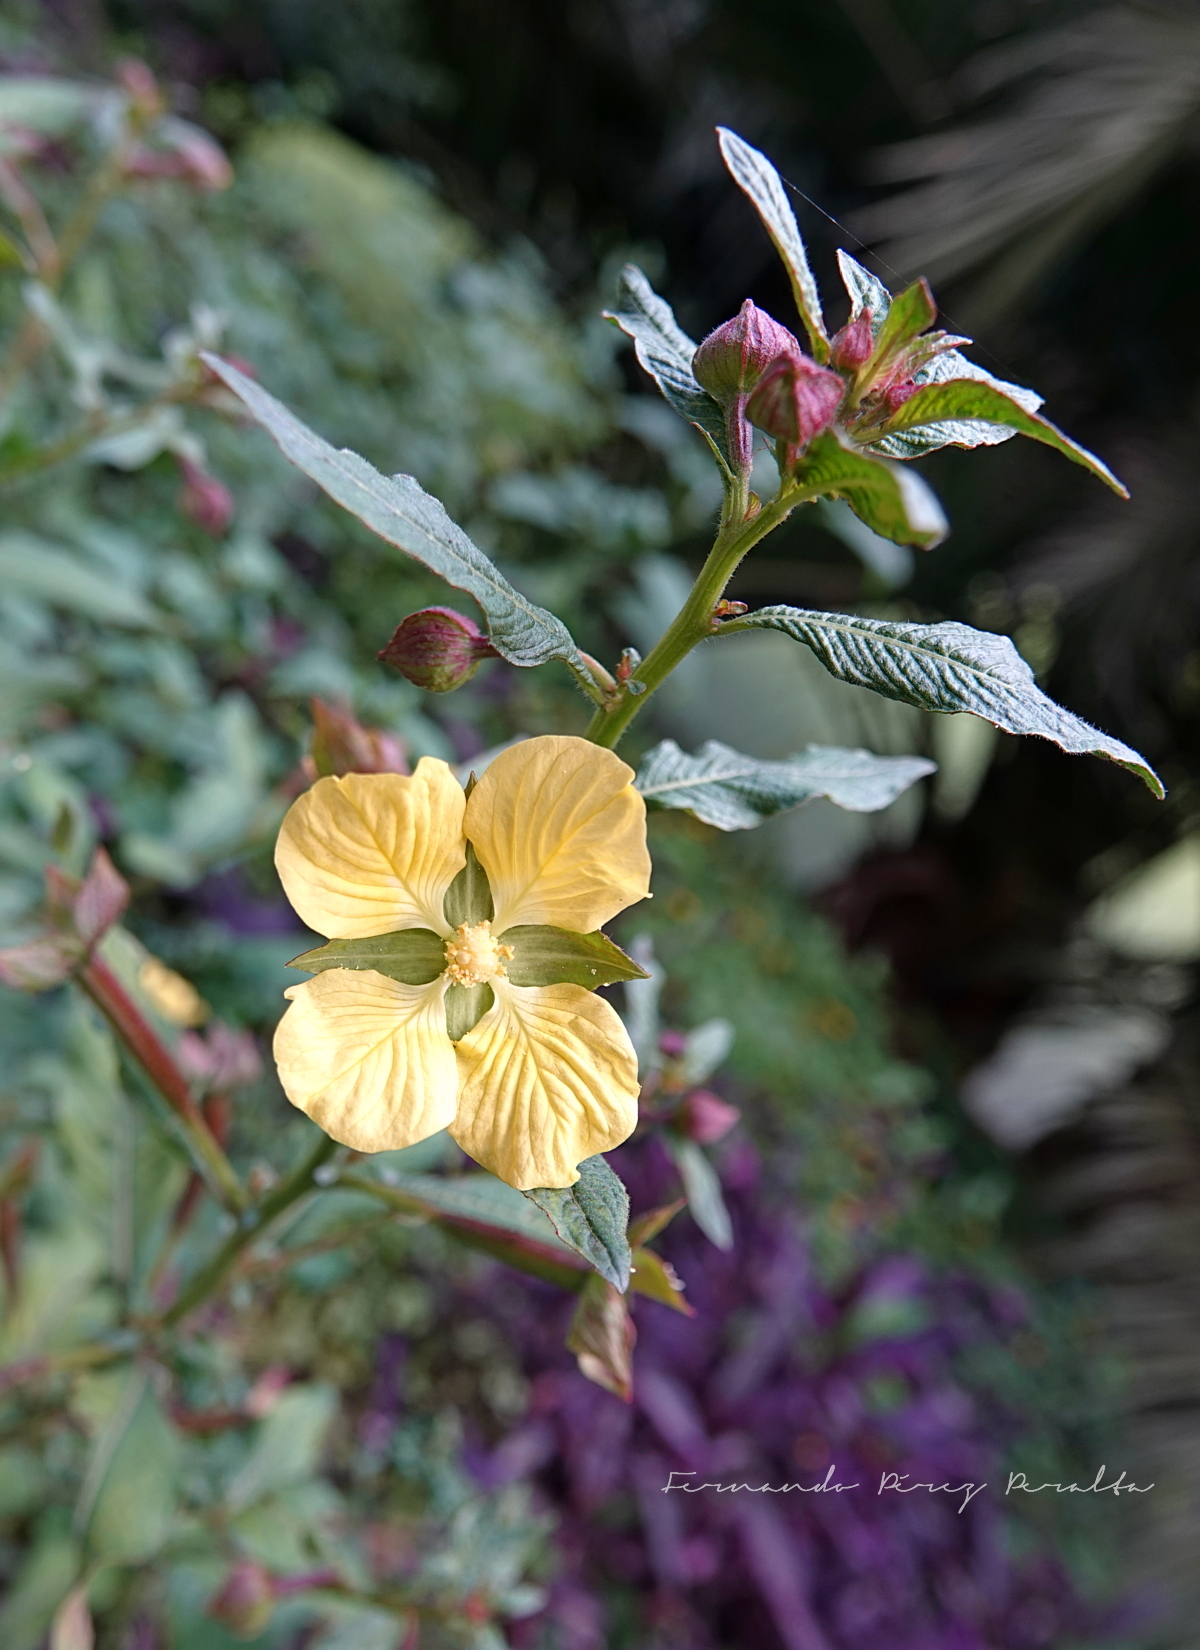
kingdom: Plantae
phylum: Tracheophyta
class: Magnoliopsida
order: Myrtales
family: Onagraceae
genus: Ludwigia
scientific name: Ludwigia octovalvis
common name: Water-primrose
